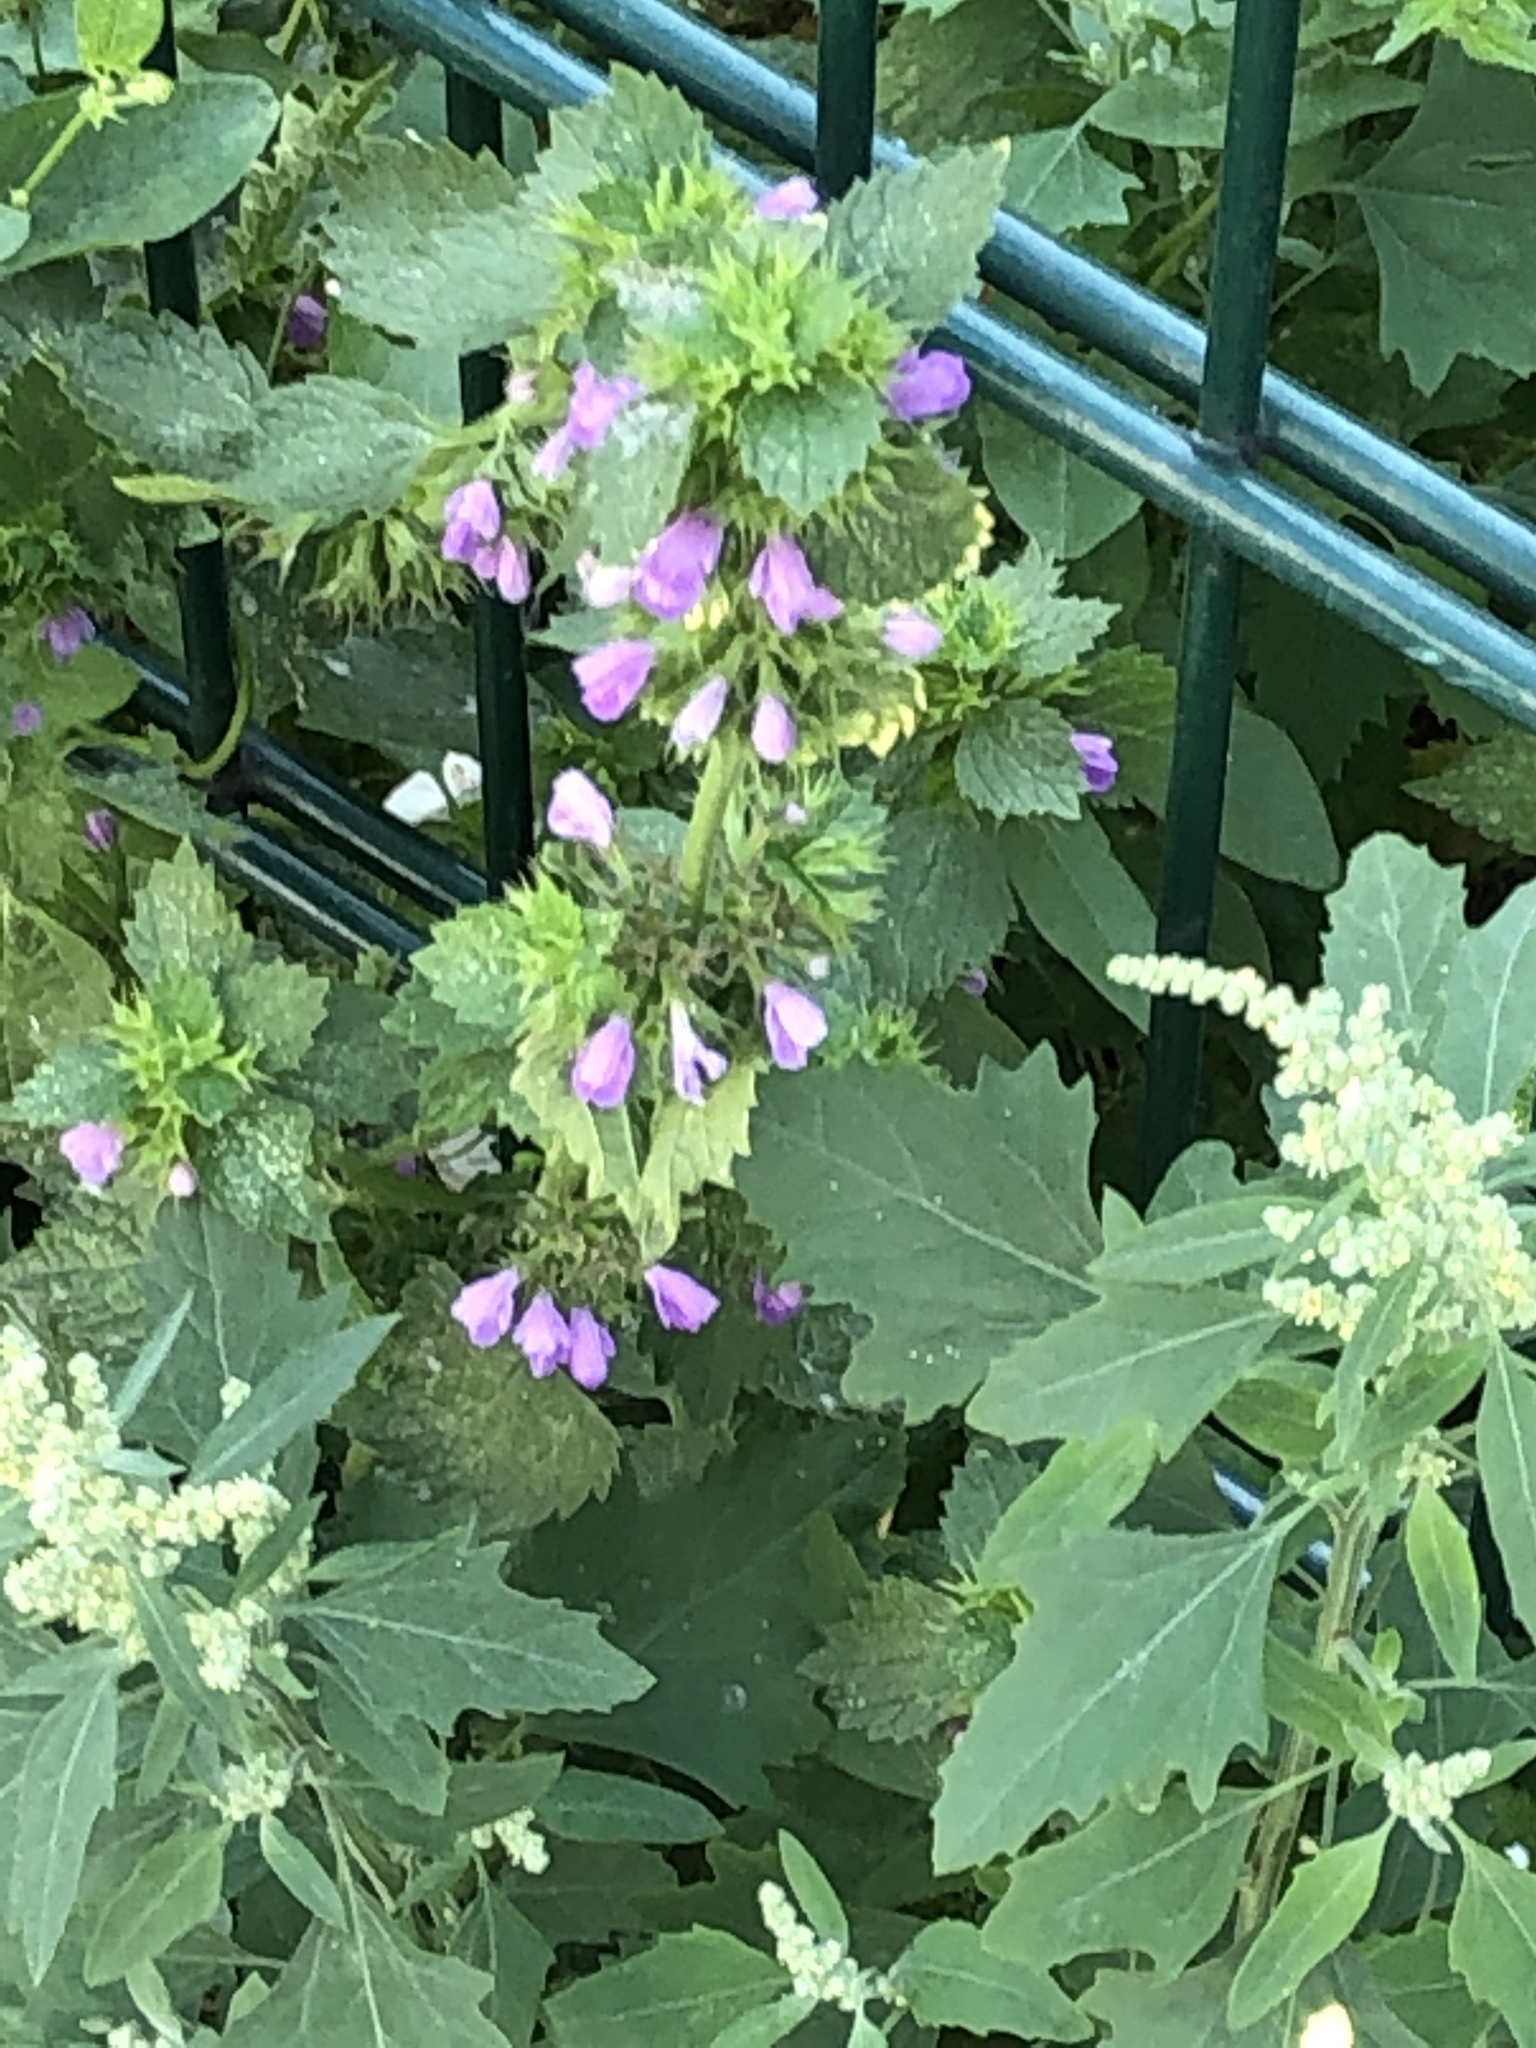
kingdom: Plantae
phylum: Tracheophyta
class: Magnoliopsida
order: Lamiales
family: Lamiaceae
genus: Ballota
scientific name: Ballota nigra
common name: Black horehound
